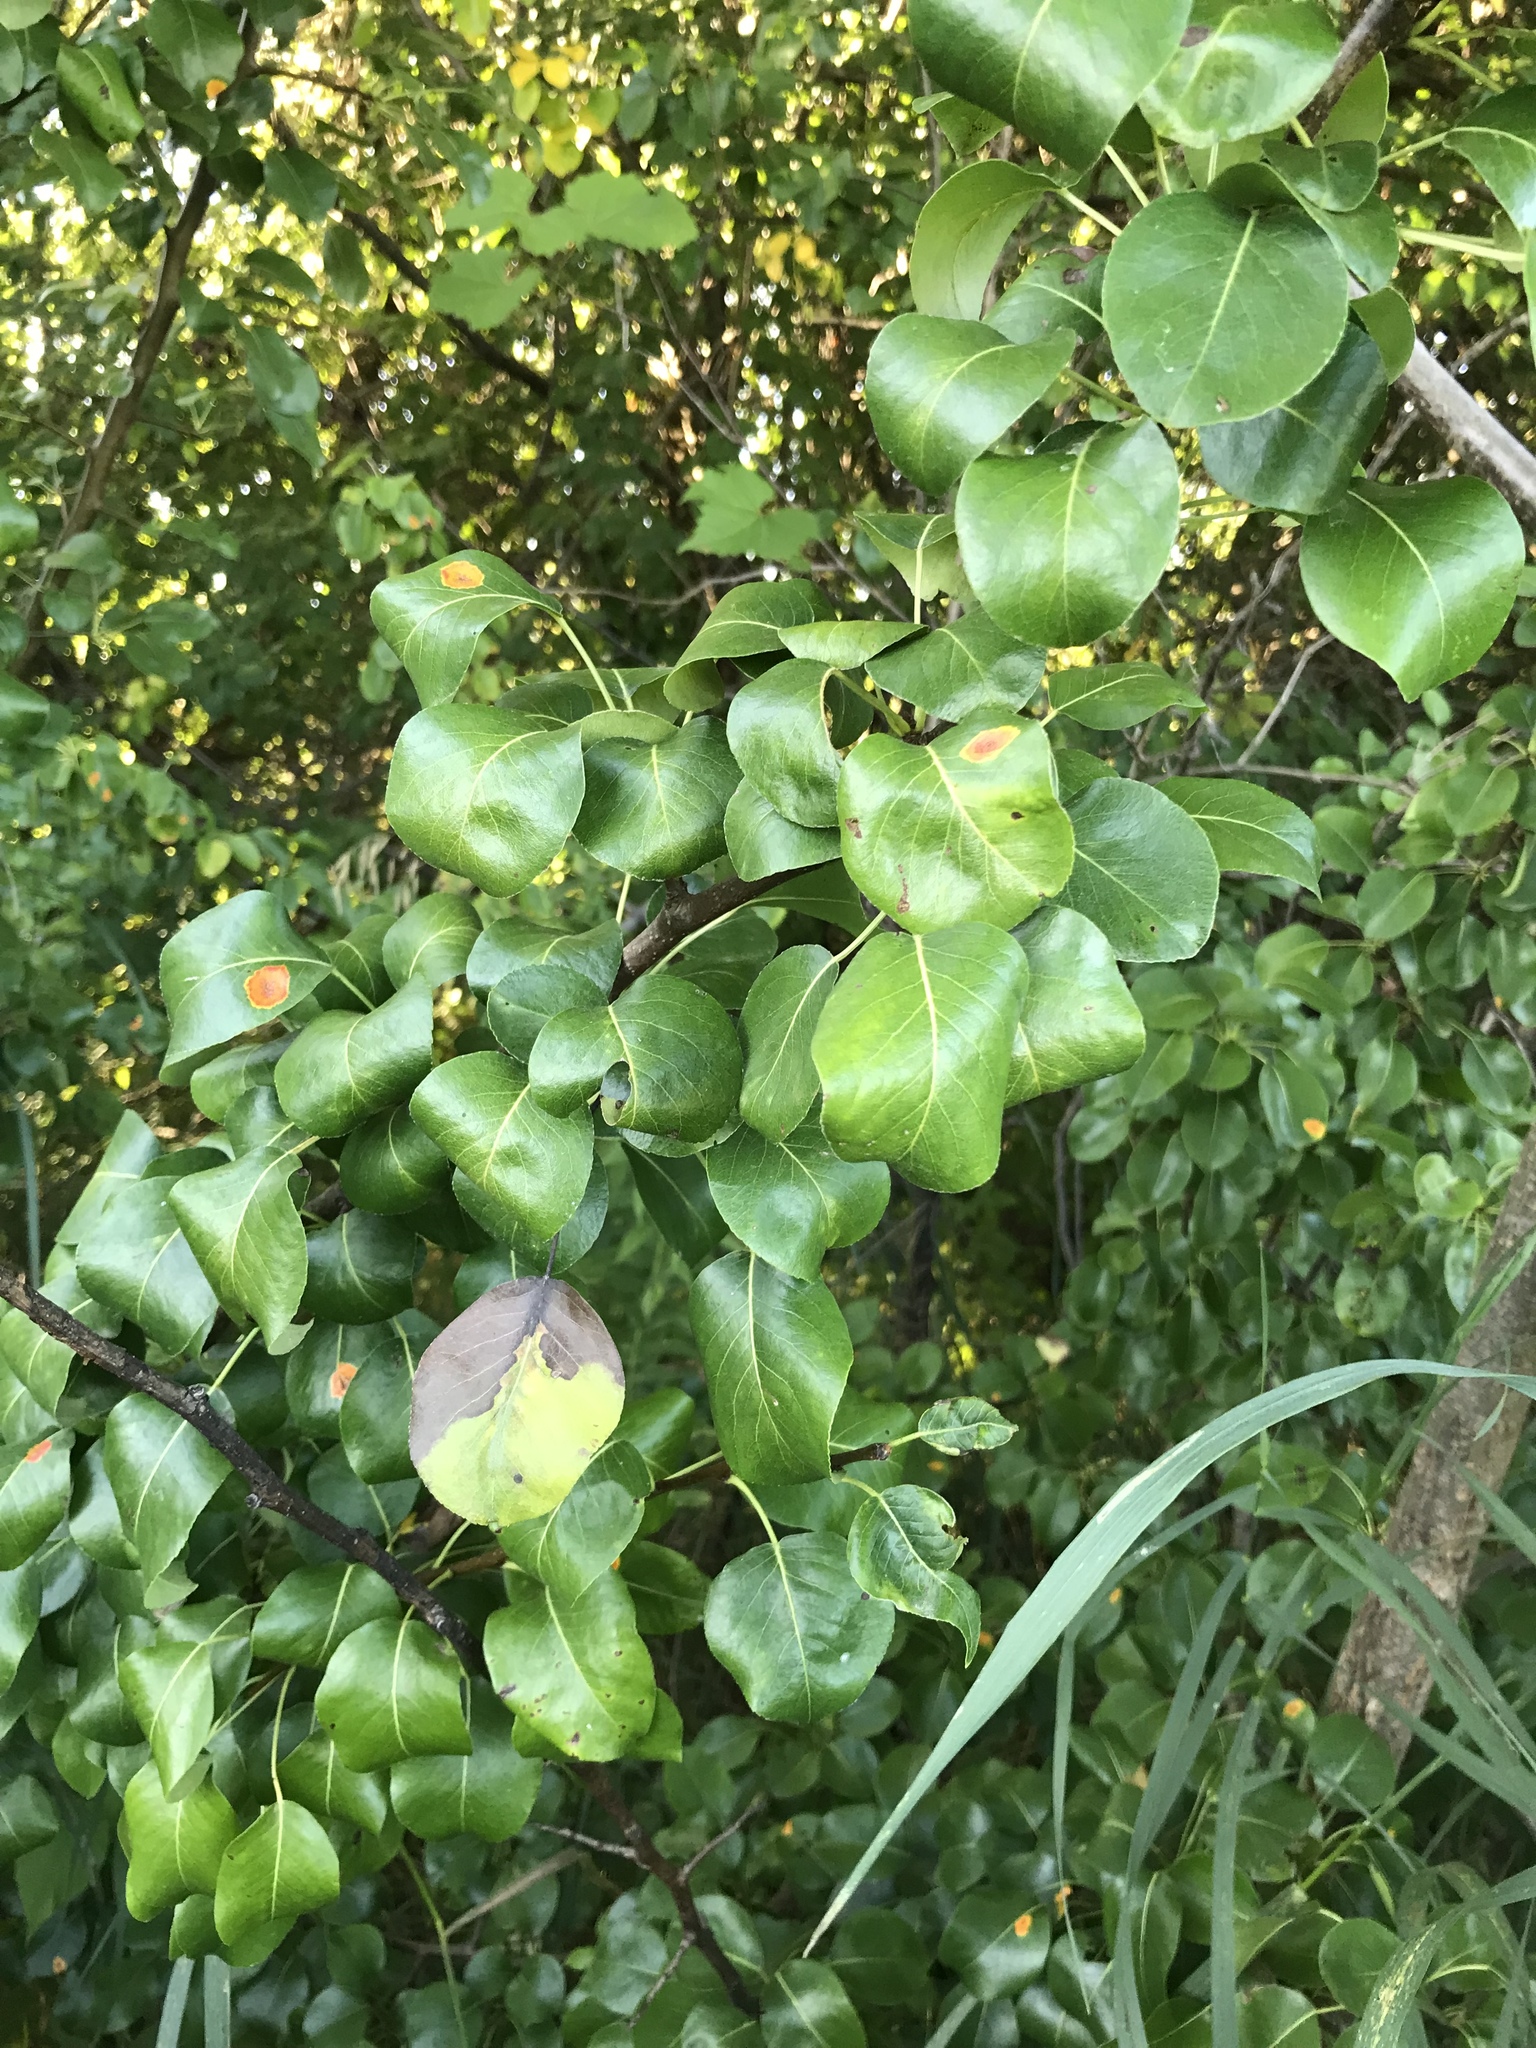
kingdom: Plantae
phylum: Tracheophyta
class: Magnoliopsida
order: Rosales
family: Rosaceae
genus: Pyrus
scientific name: Pyrus communis
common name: Pear
